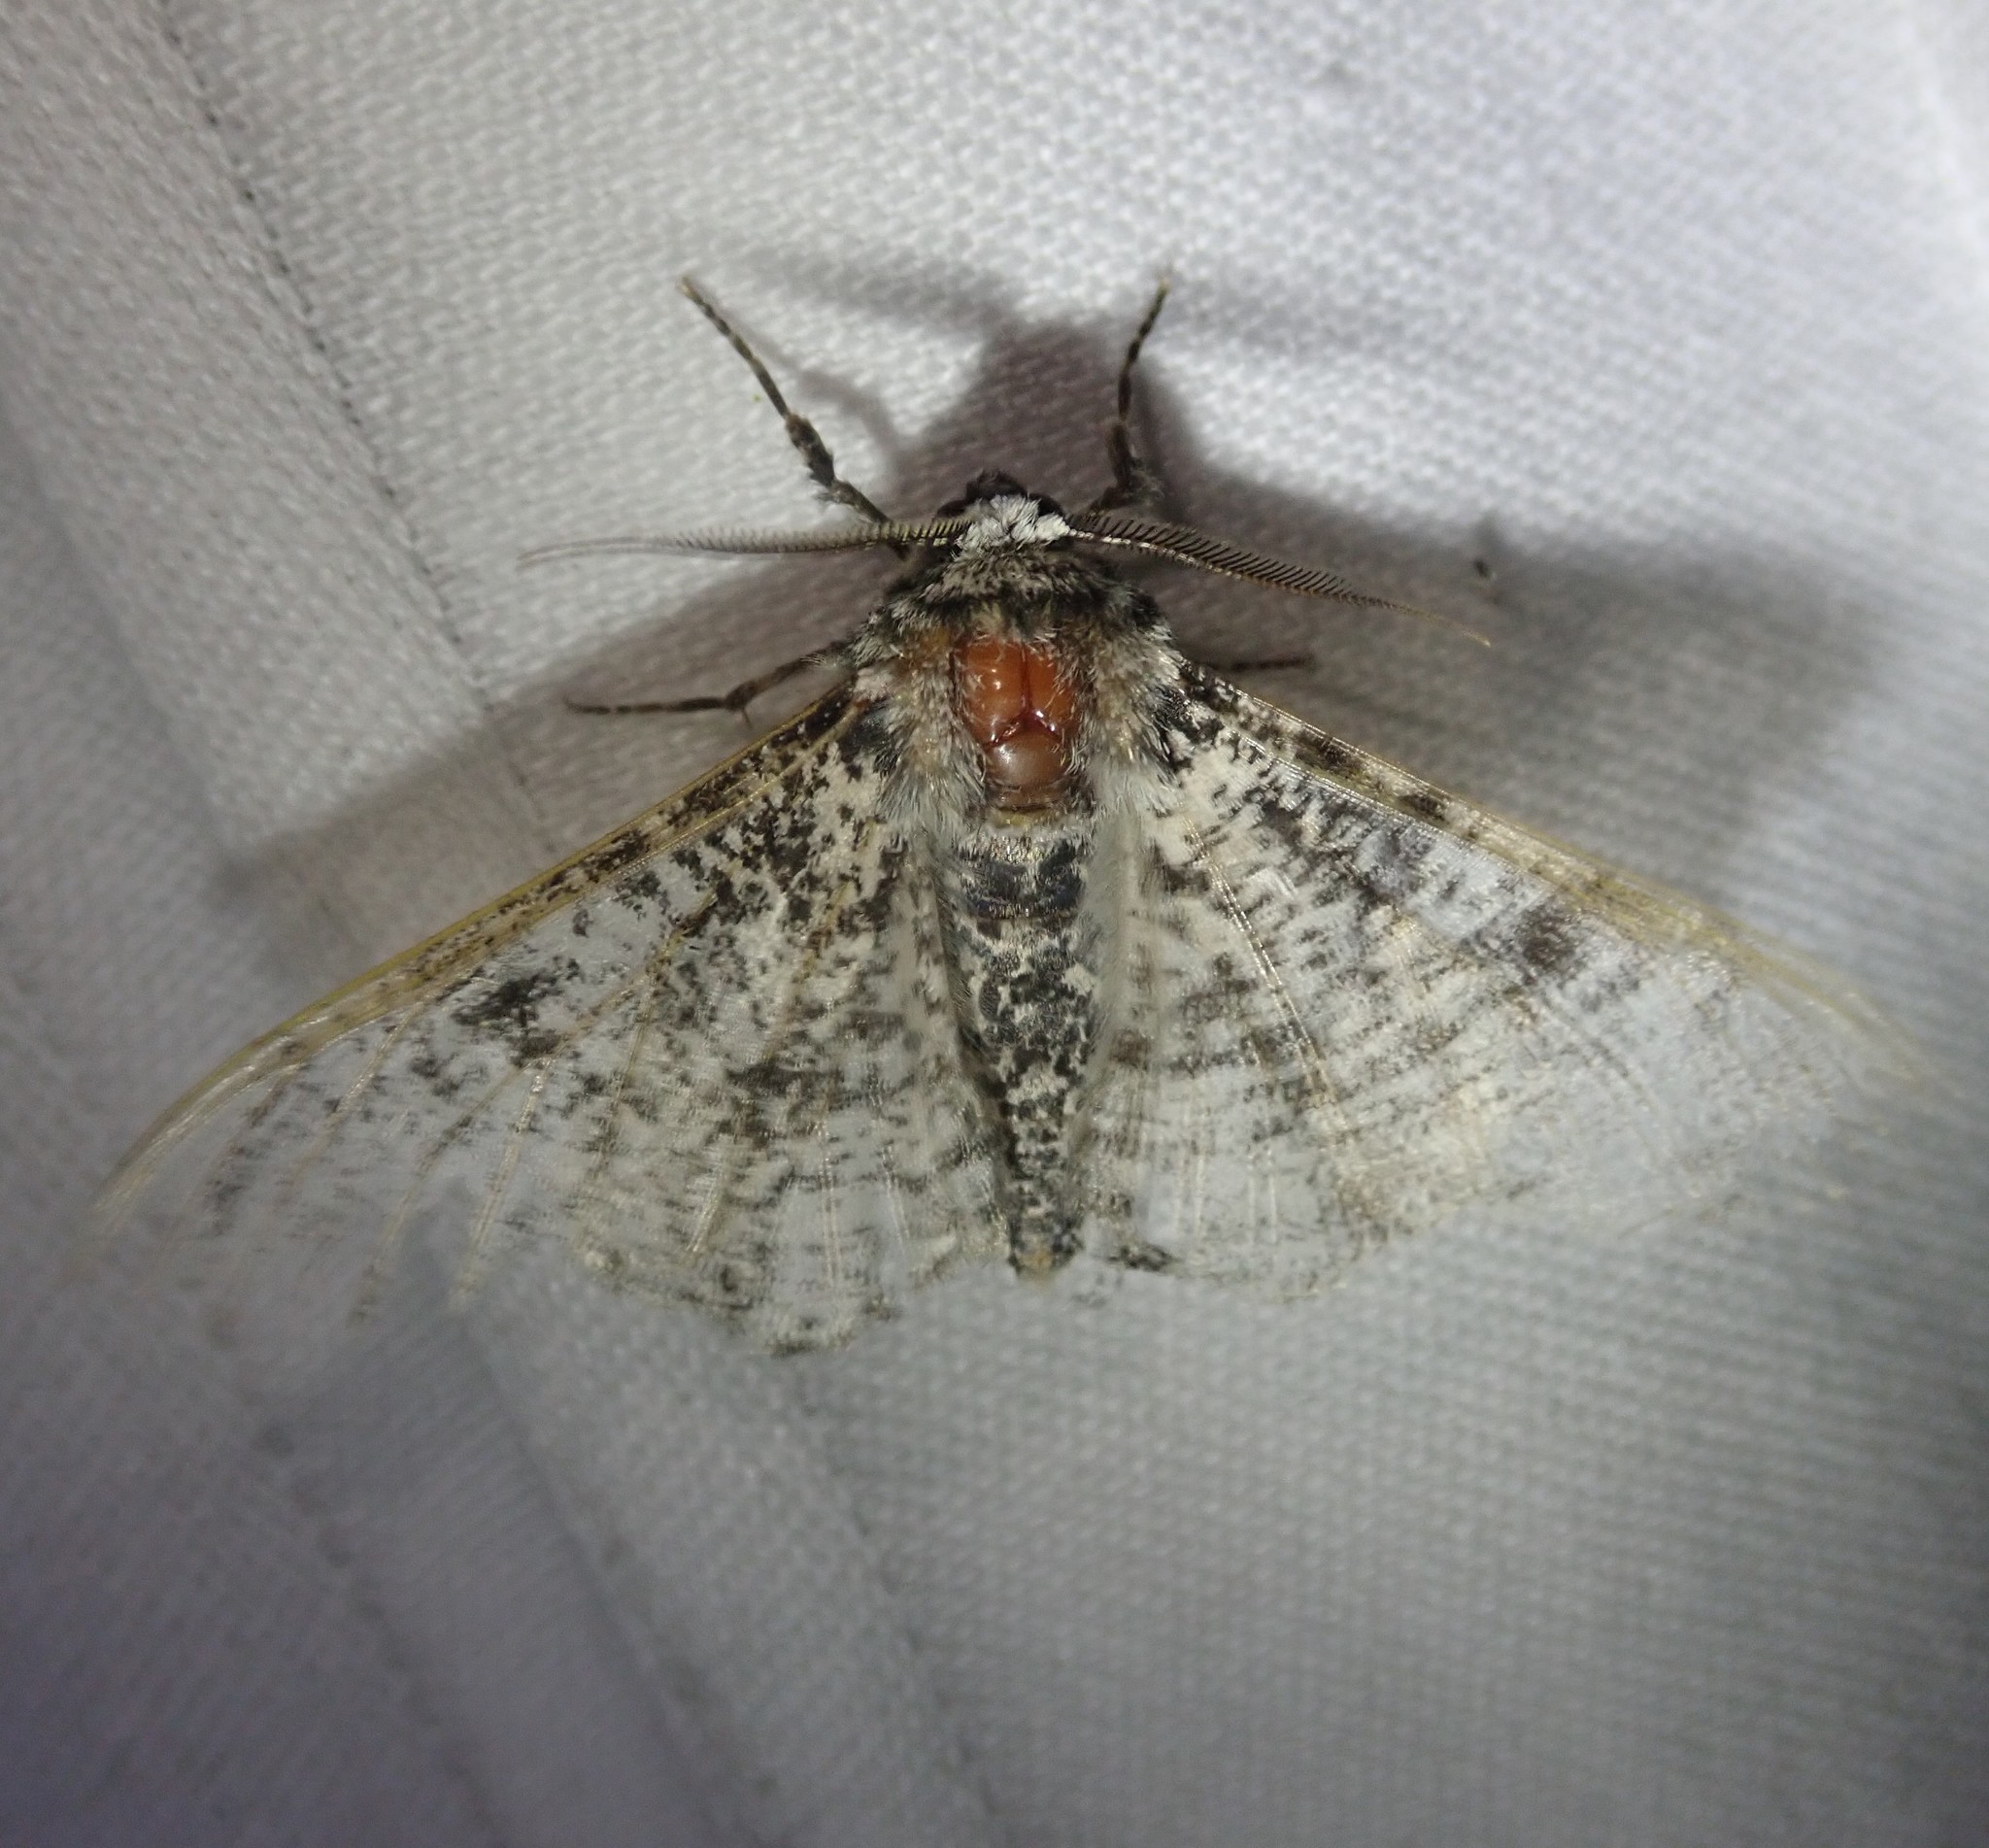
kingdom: Animalia
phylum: Arthropoda
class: Insecta
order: Lepidoptera
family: Geometridae
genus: Biston
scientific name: Biston betularia
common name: Peppered moth
